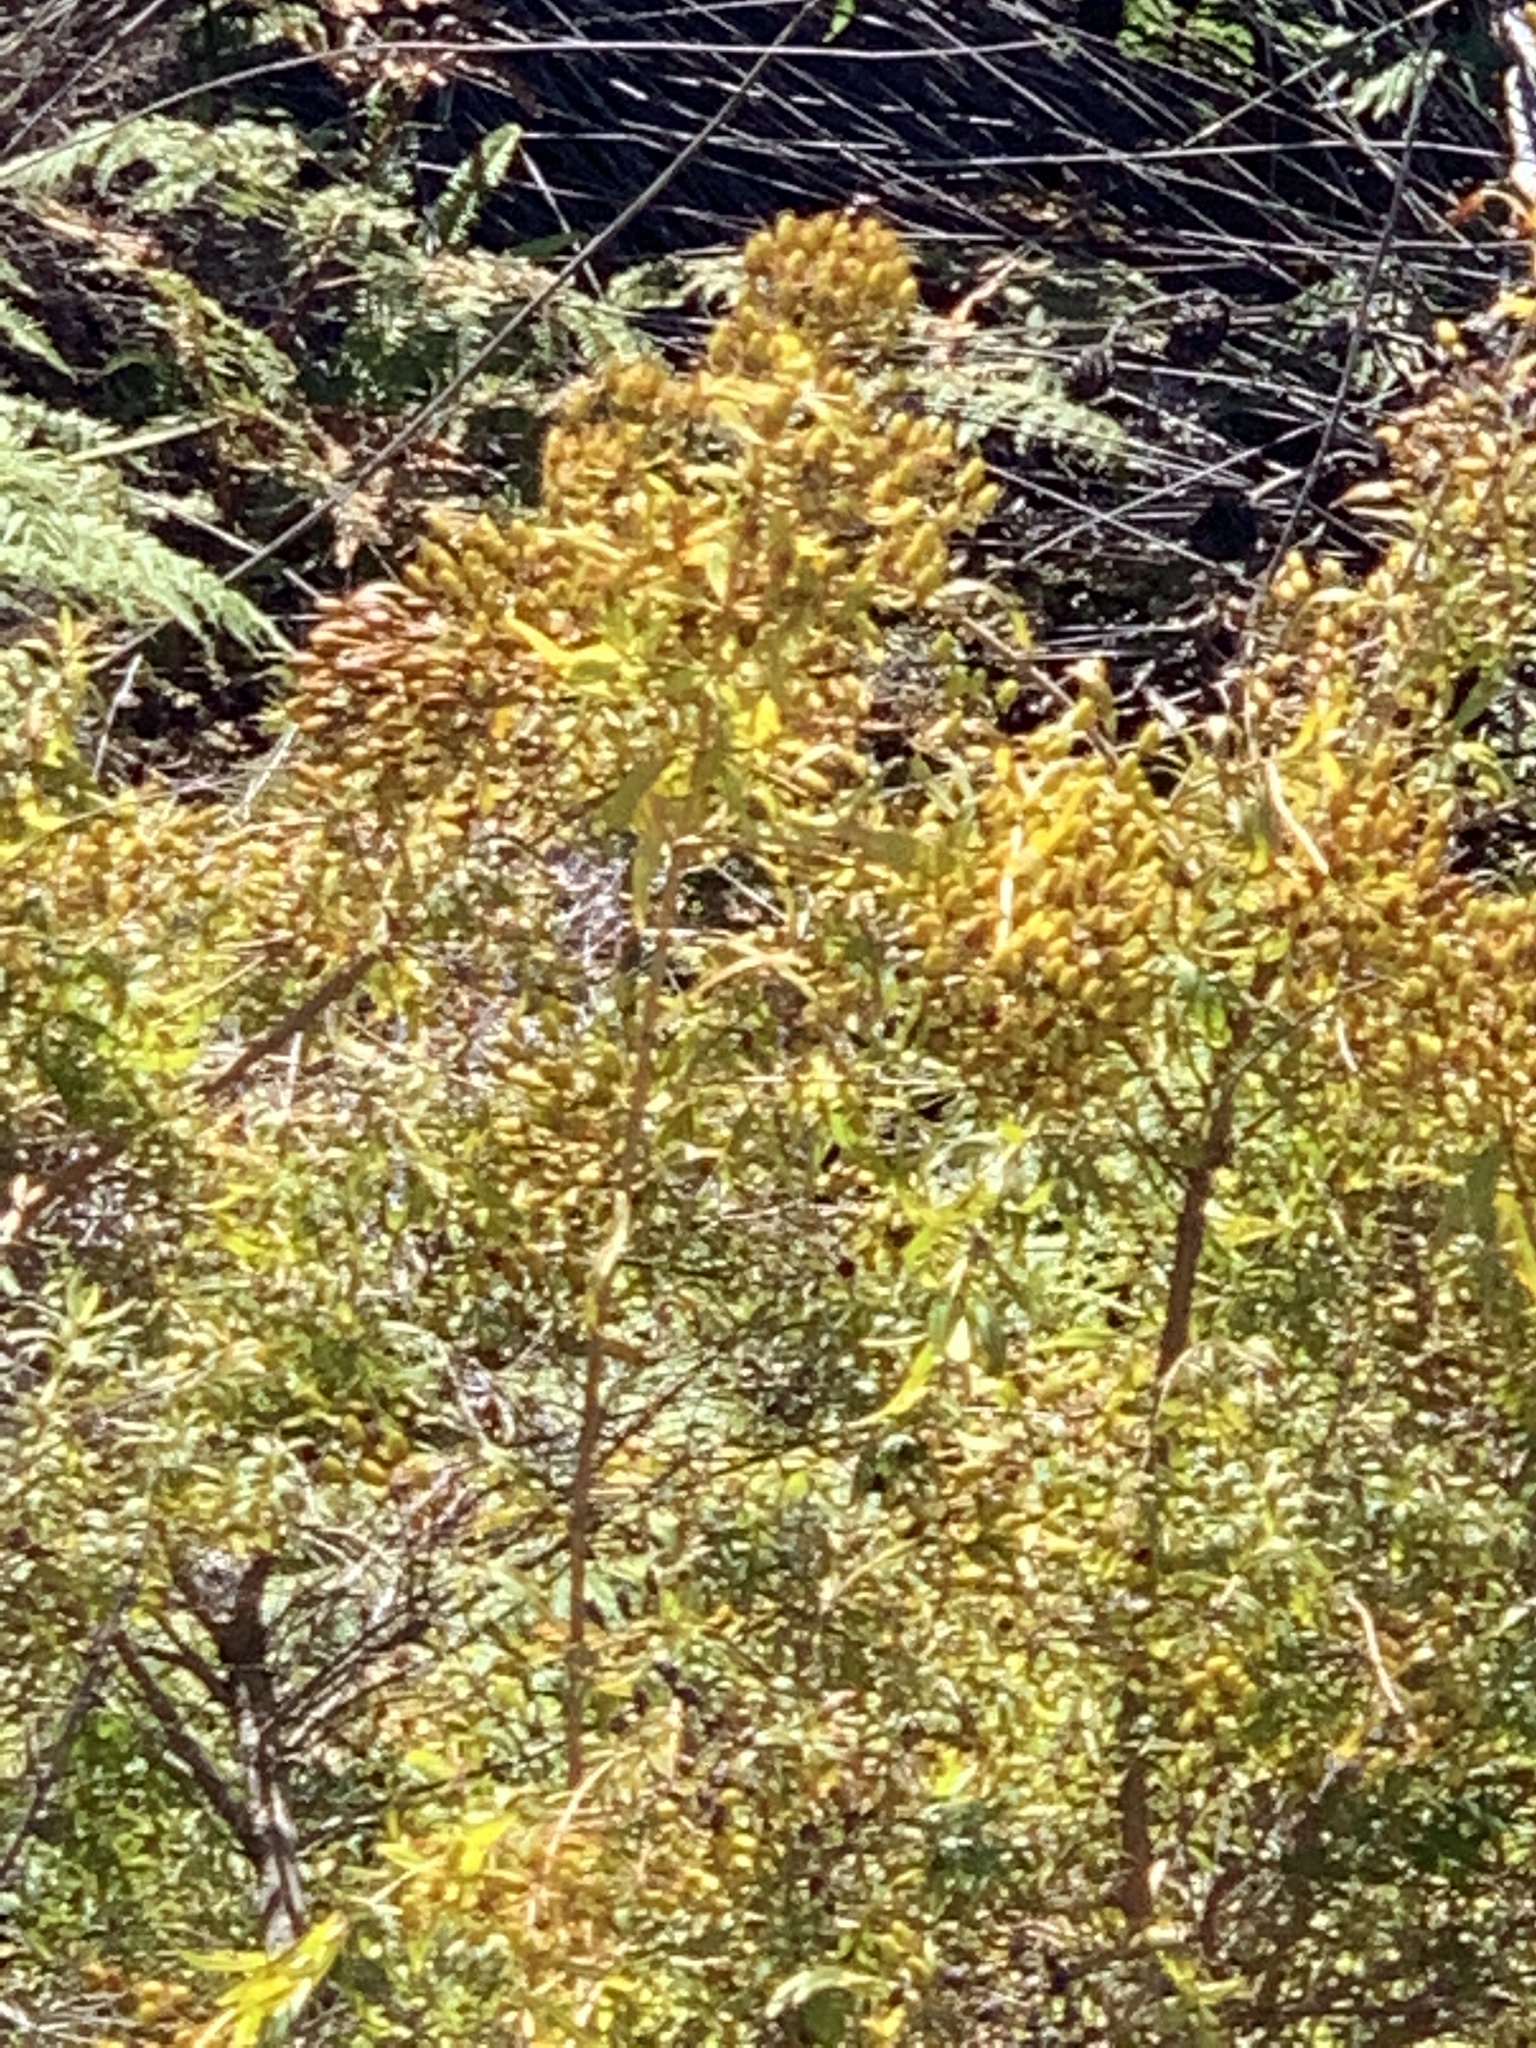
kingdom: Plantae
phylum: Tracheophyta
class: Magnoliopsida
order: Malpighiales
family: Hypericaceae
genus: Hypericum
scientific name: Hypericum canariense
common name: Canary island st. johnswort
